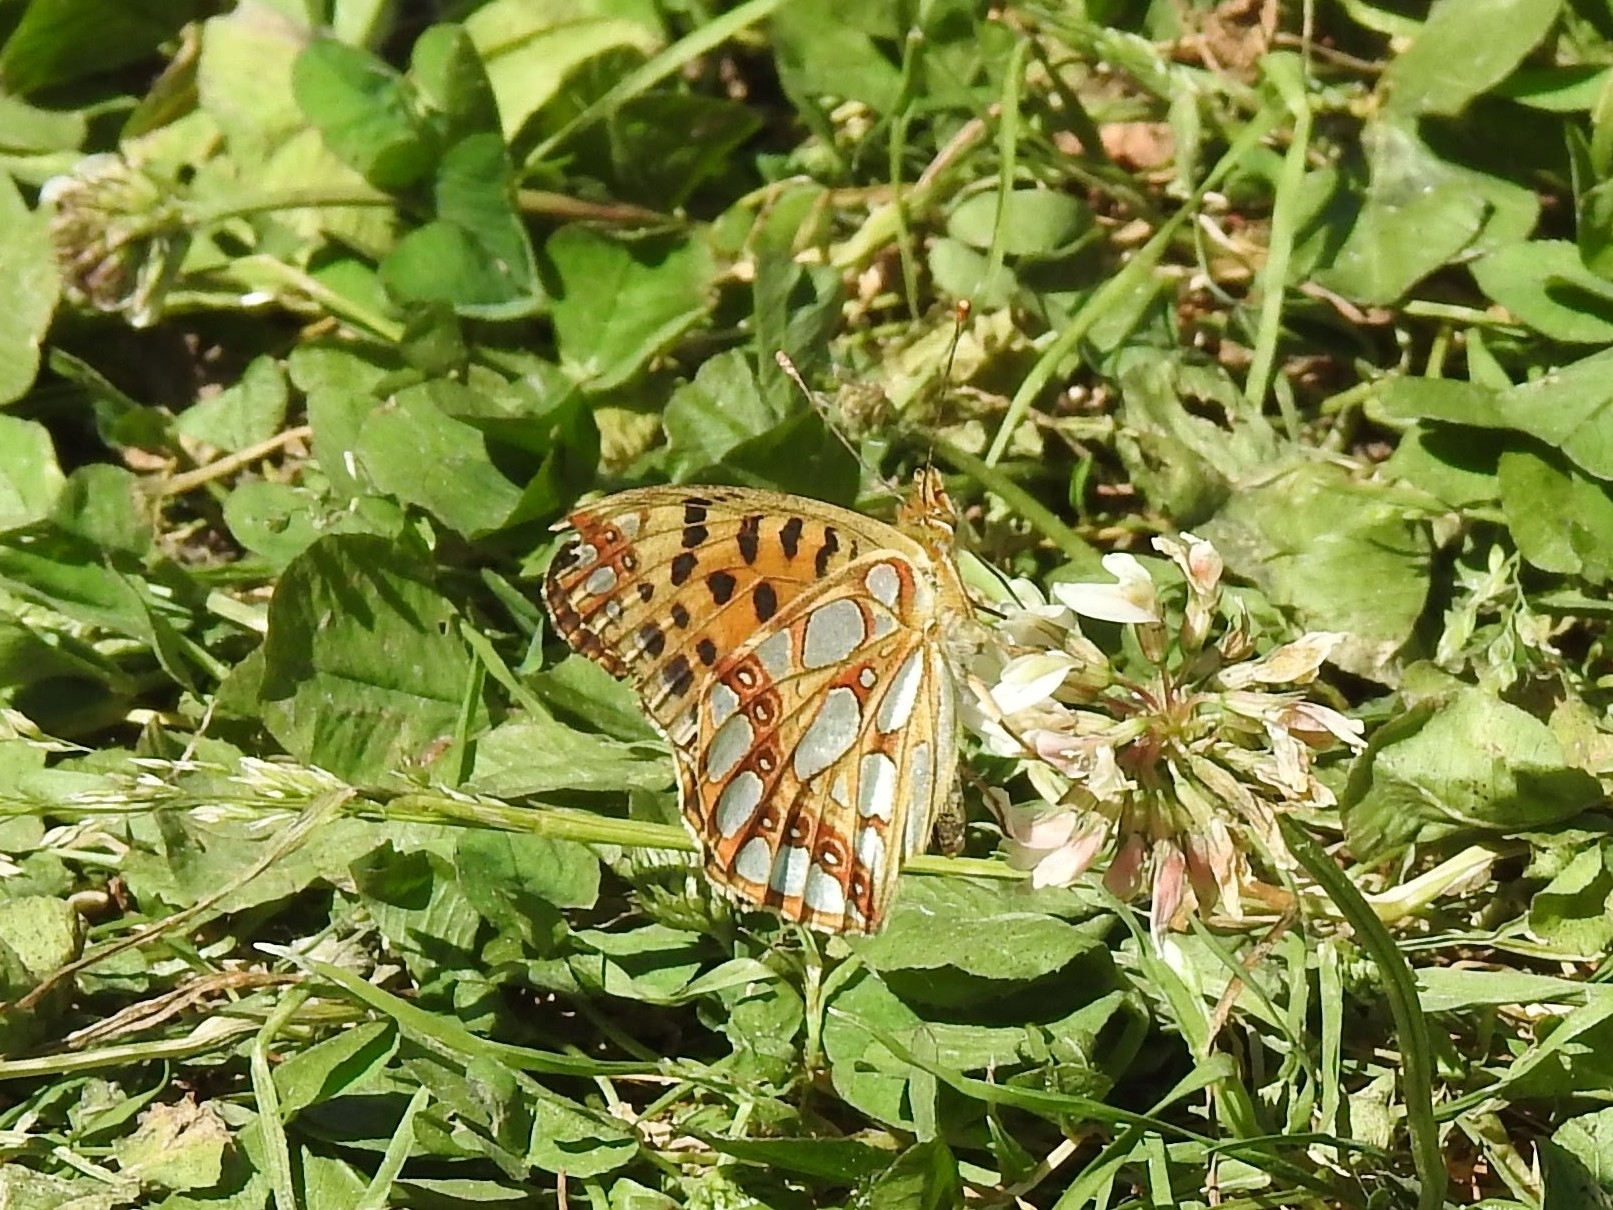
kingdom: Animalia
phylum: Arthropoda
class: Insecta
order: Lepidoptera
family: Nymphalidae
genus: Issoria
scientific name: Issoria lathonia
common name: Queen of spain fritillary
